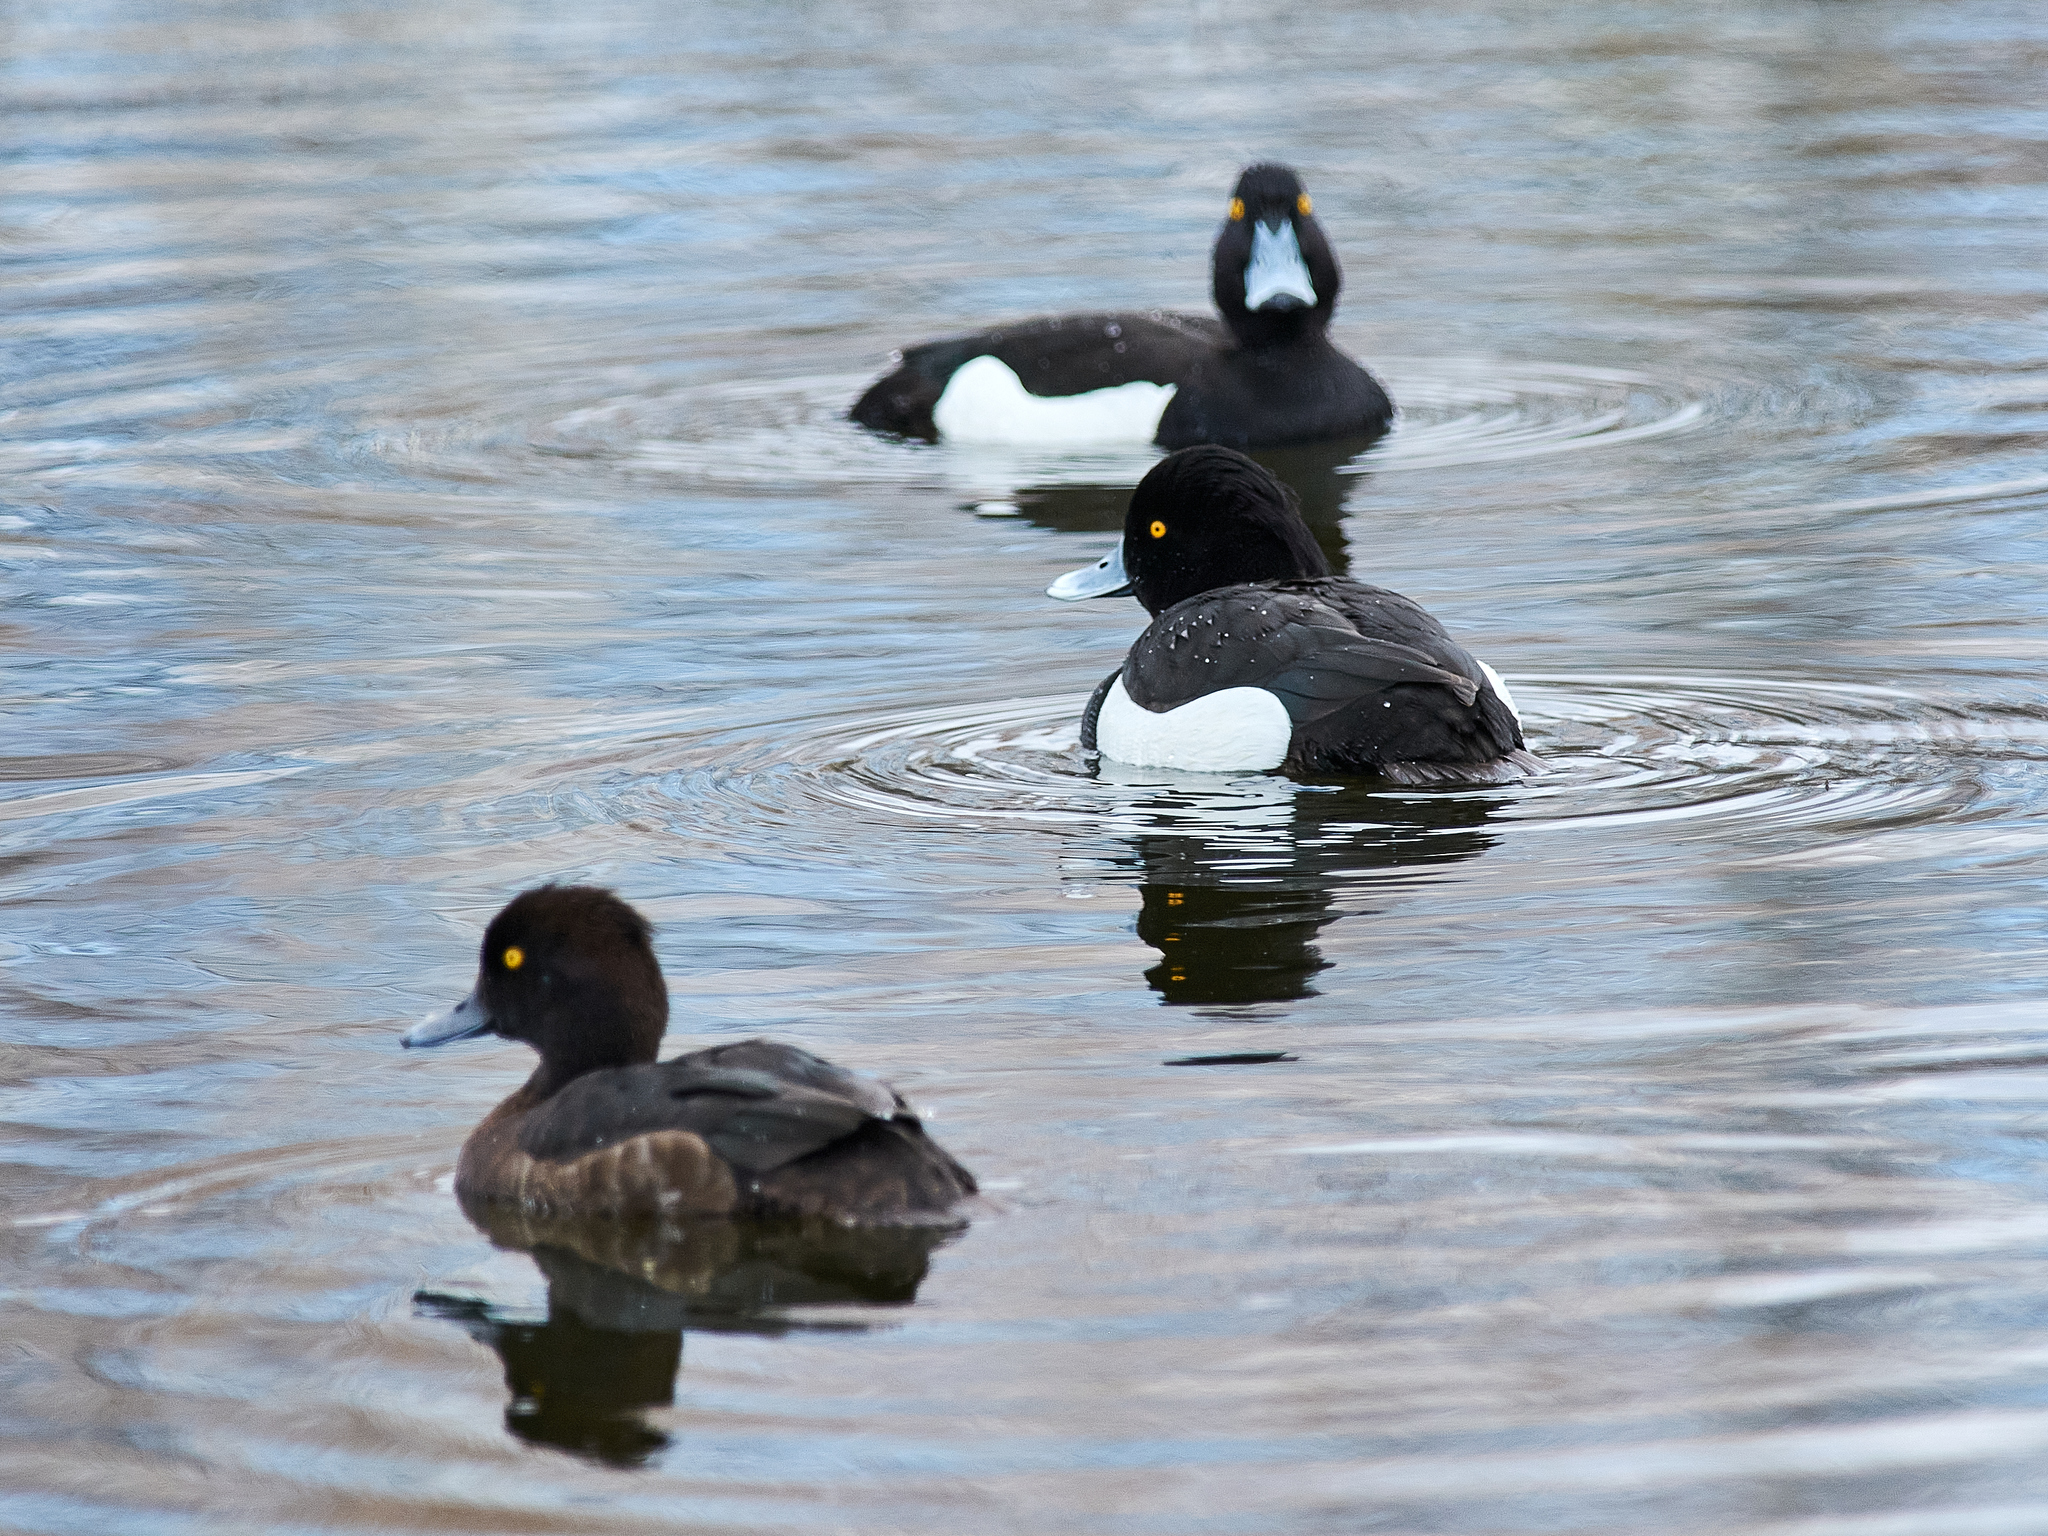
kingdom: Animalia
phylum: Chordata
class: Aves
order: Anseriformes
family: Anatidae
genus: Aythya
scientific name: Aythya fuligula
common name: Tufted duck
